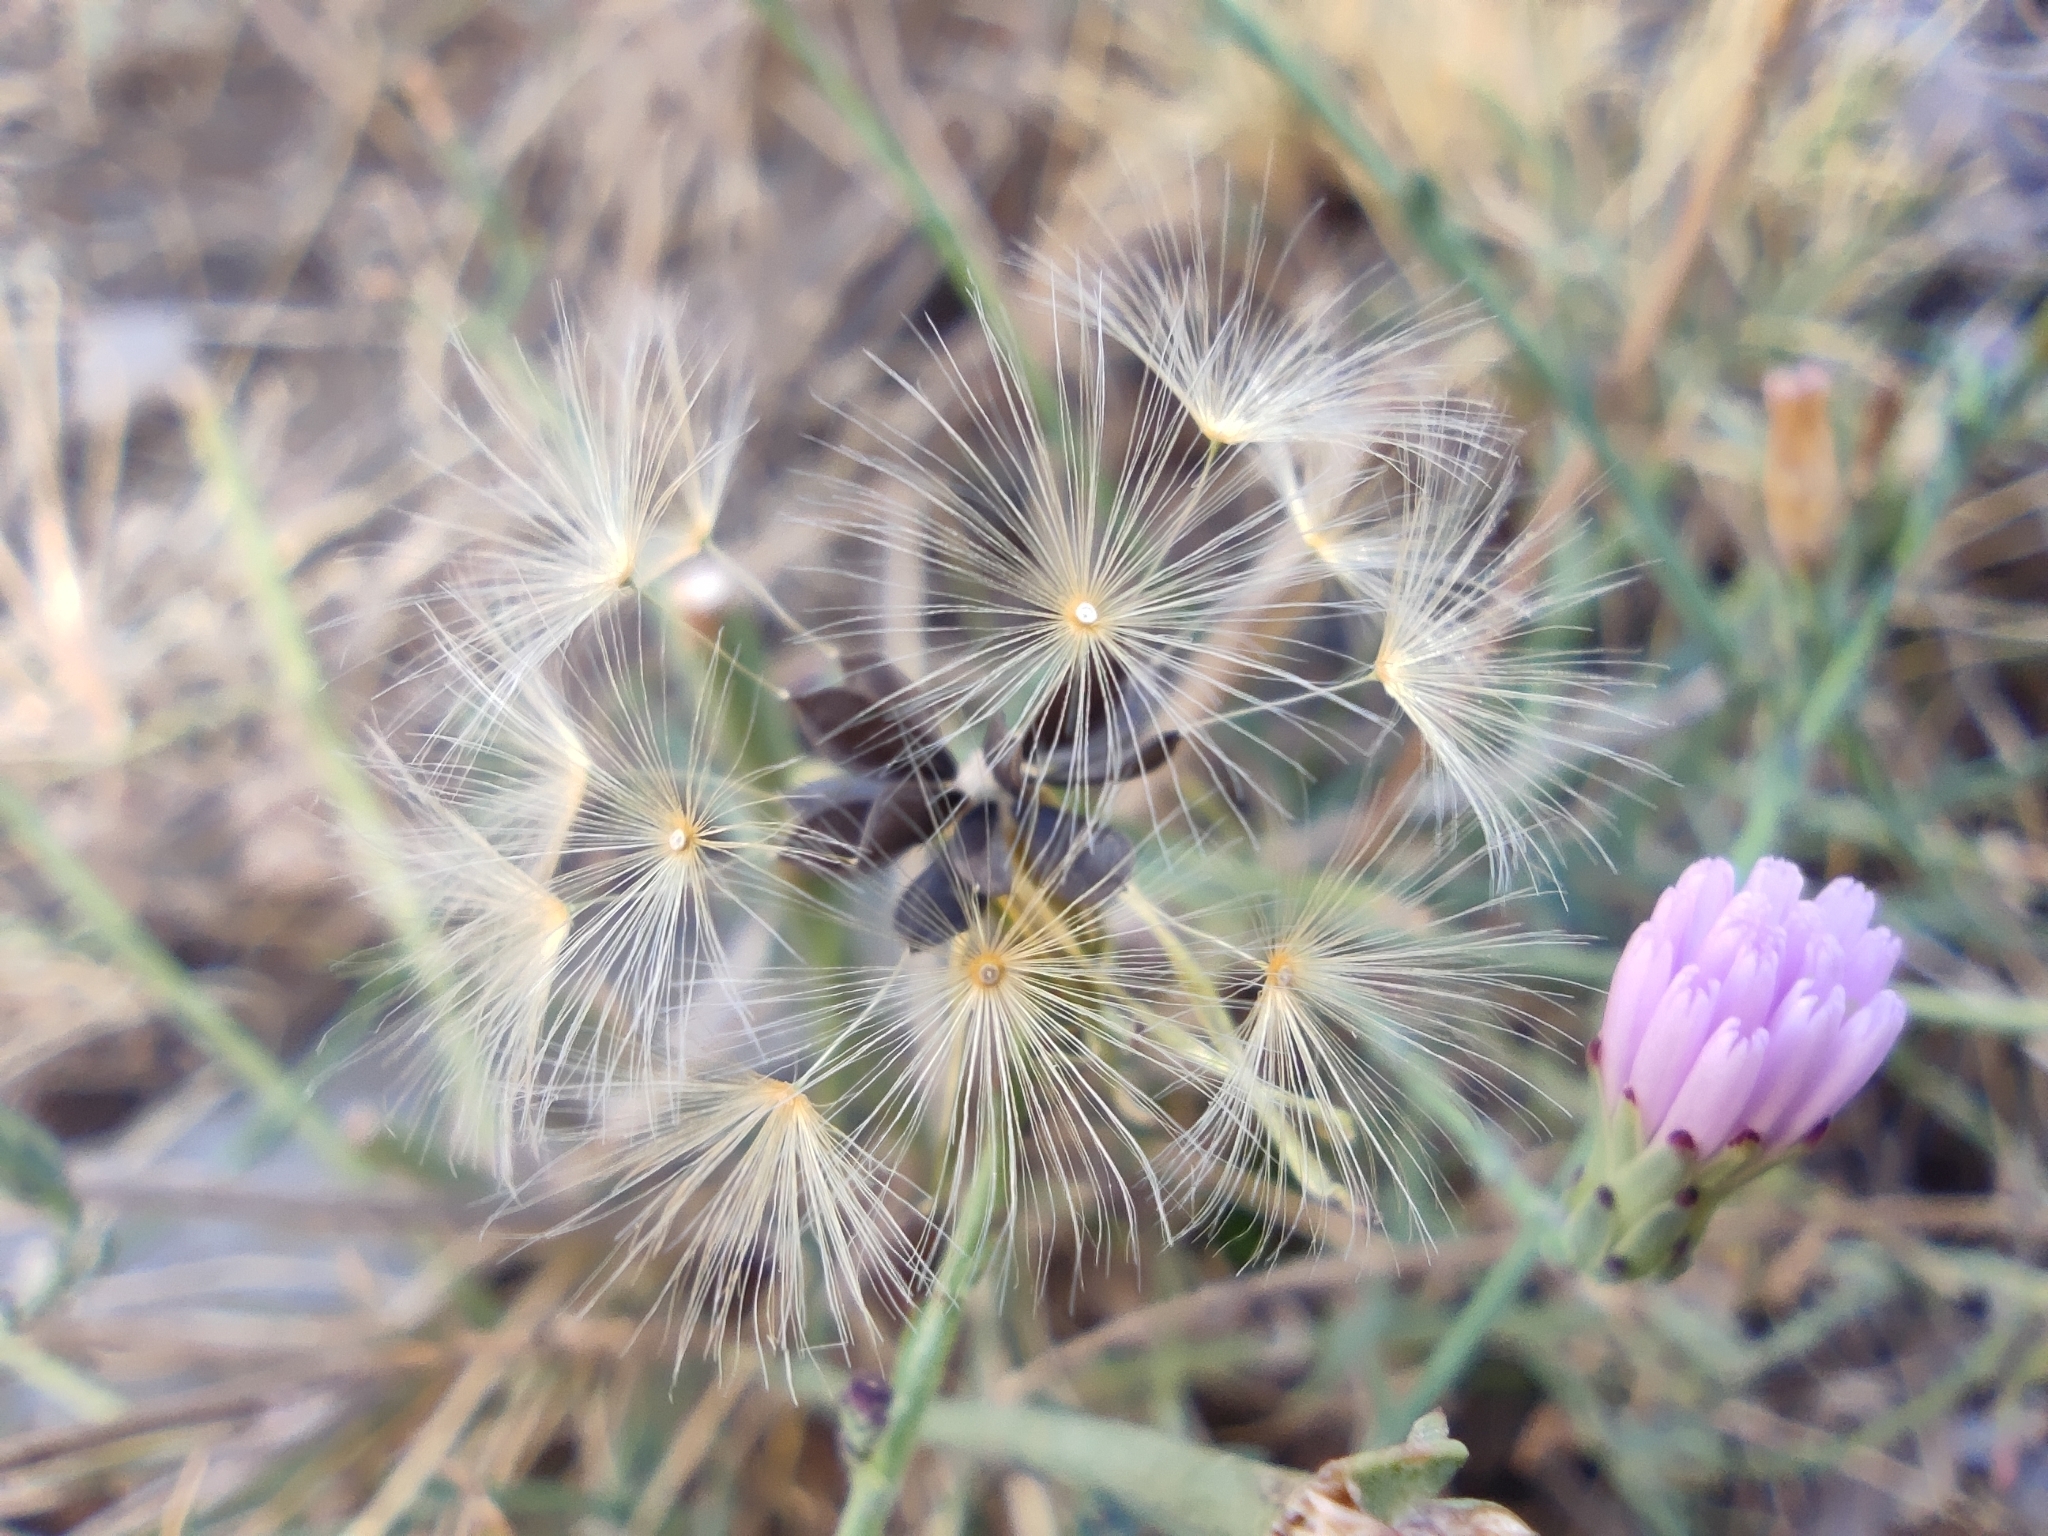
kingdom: Plantae
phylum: Tracheophyta
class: Magnoliopsida
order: Asterales
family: Asteraceae
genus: Lactuca
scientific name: Lactuca tenerrima
